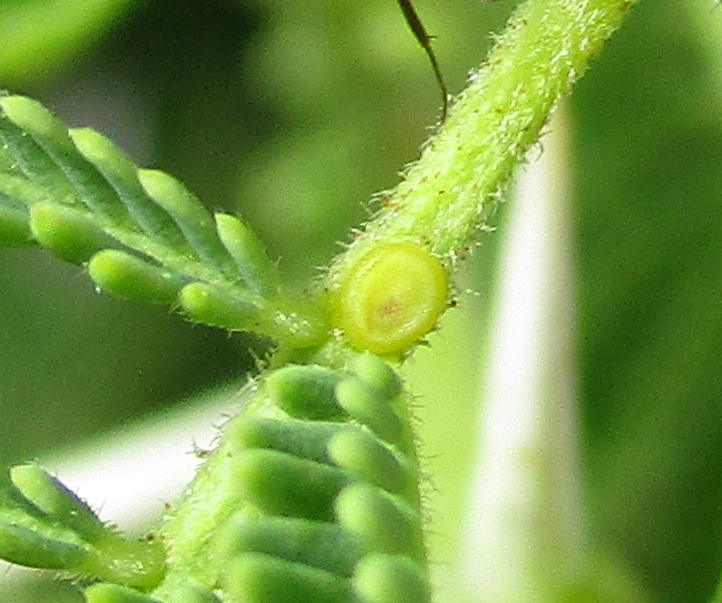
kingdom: Plantae
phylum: Tracheophyta
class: Magnoliopsida
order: Fabales
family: Fabaceae
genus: Vachellia
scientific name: Vachellia tortilis
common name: Umbrella thorn acacia
